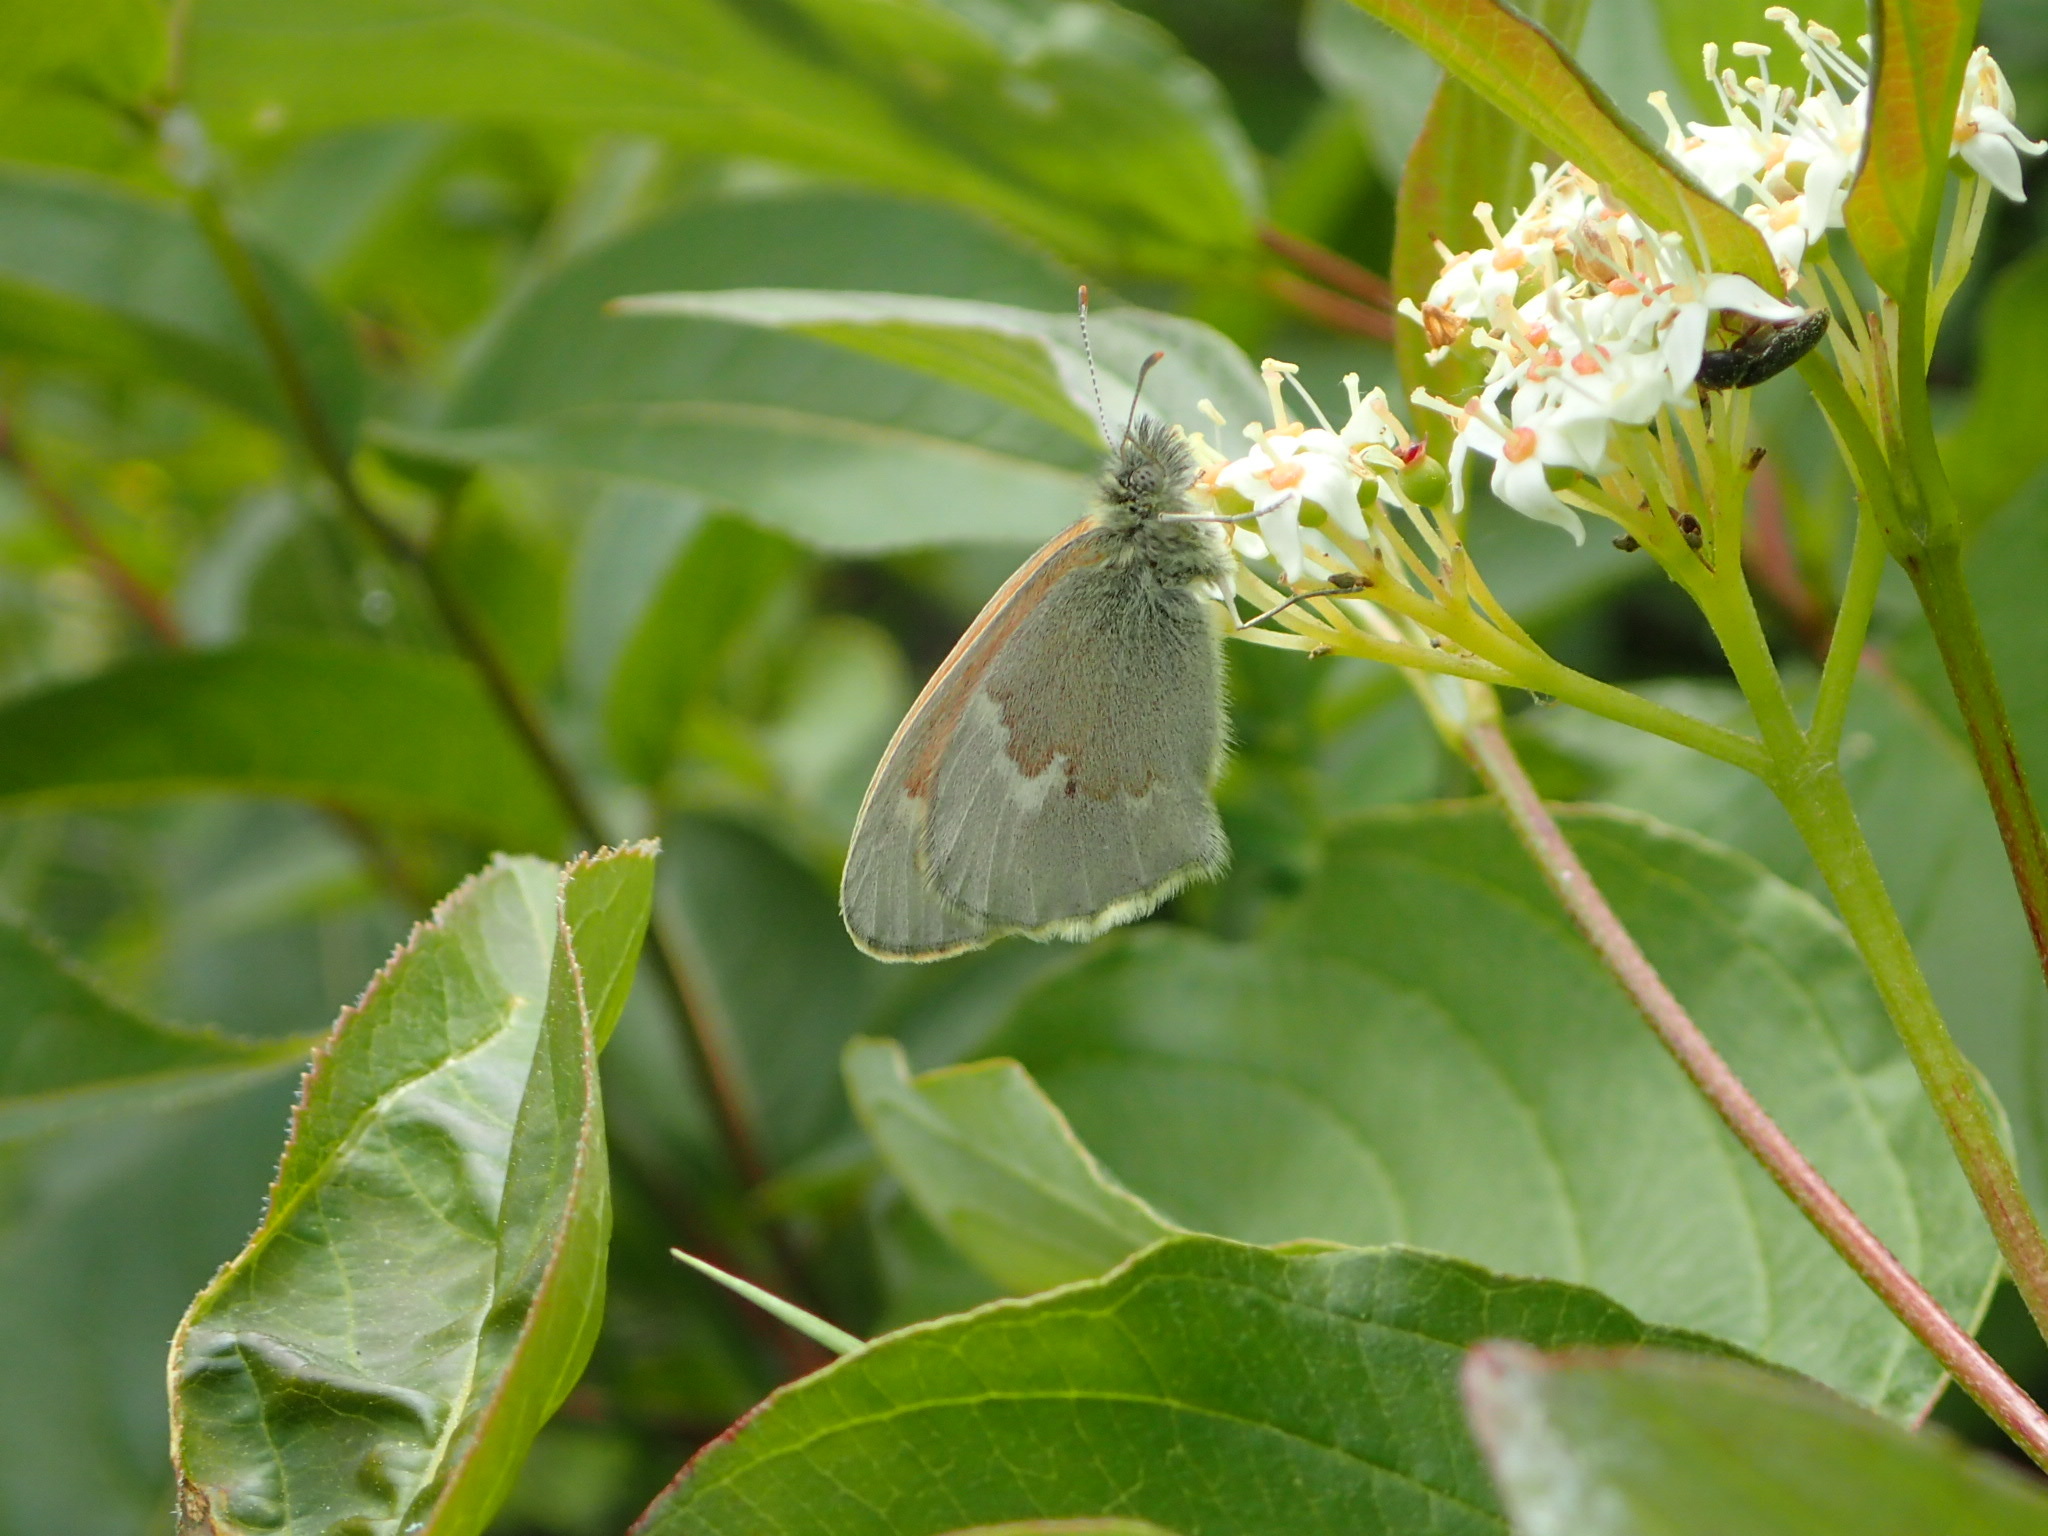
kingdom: Animalia
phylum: Arthropoda
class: Insecta
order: Lepidoptera
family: Nymphalidae
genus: Coenonympha
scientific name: Coenonympha california
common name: Common ringlet
